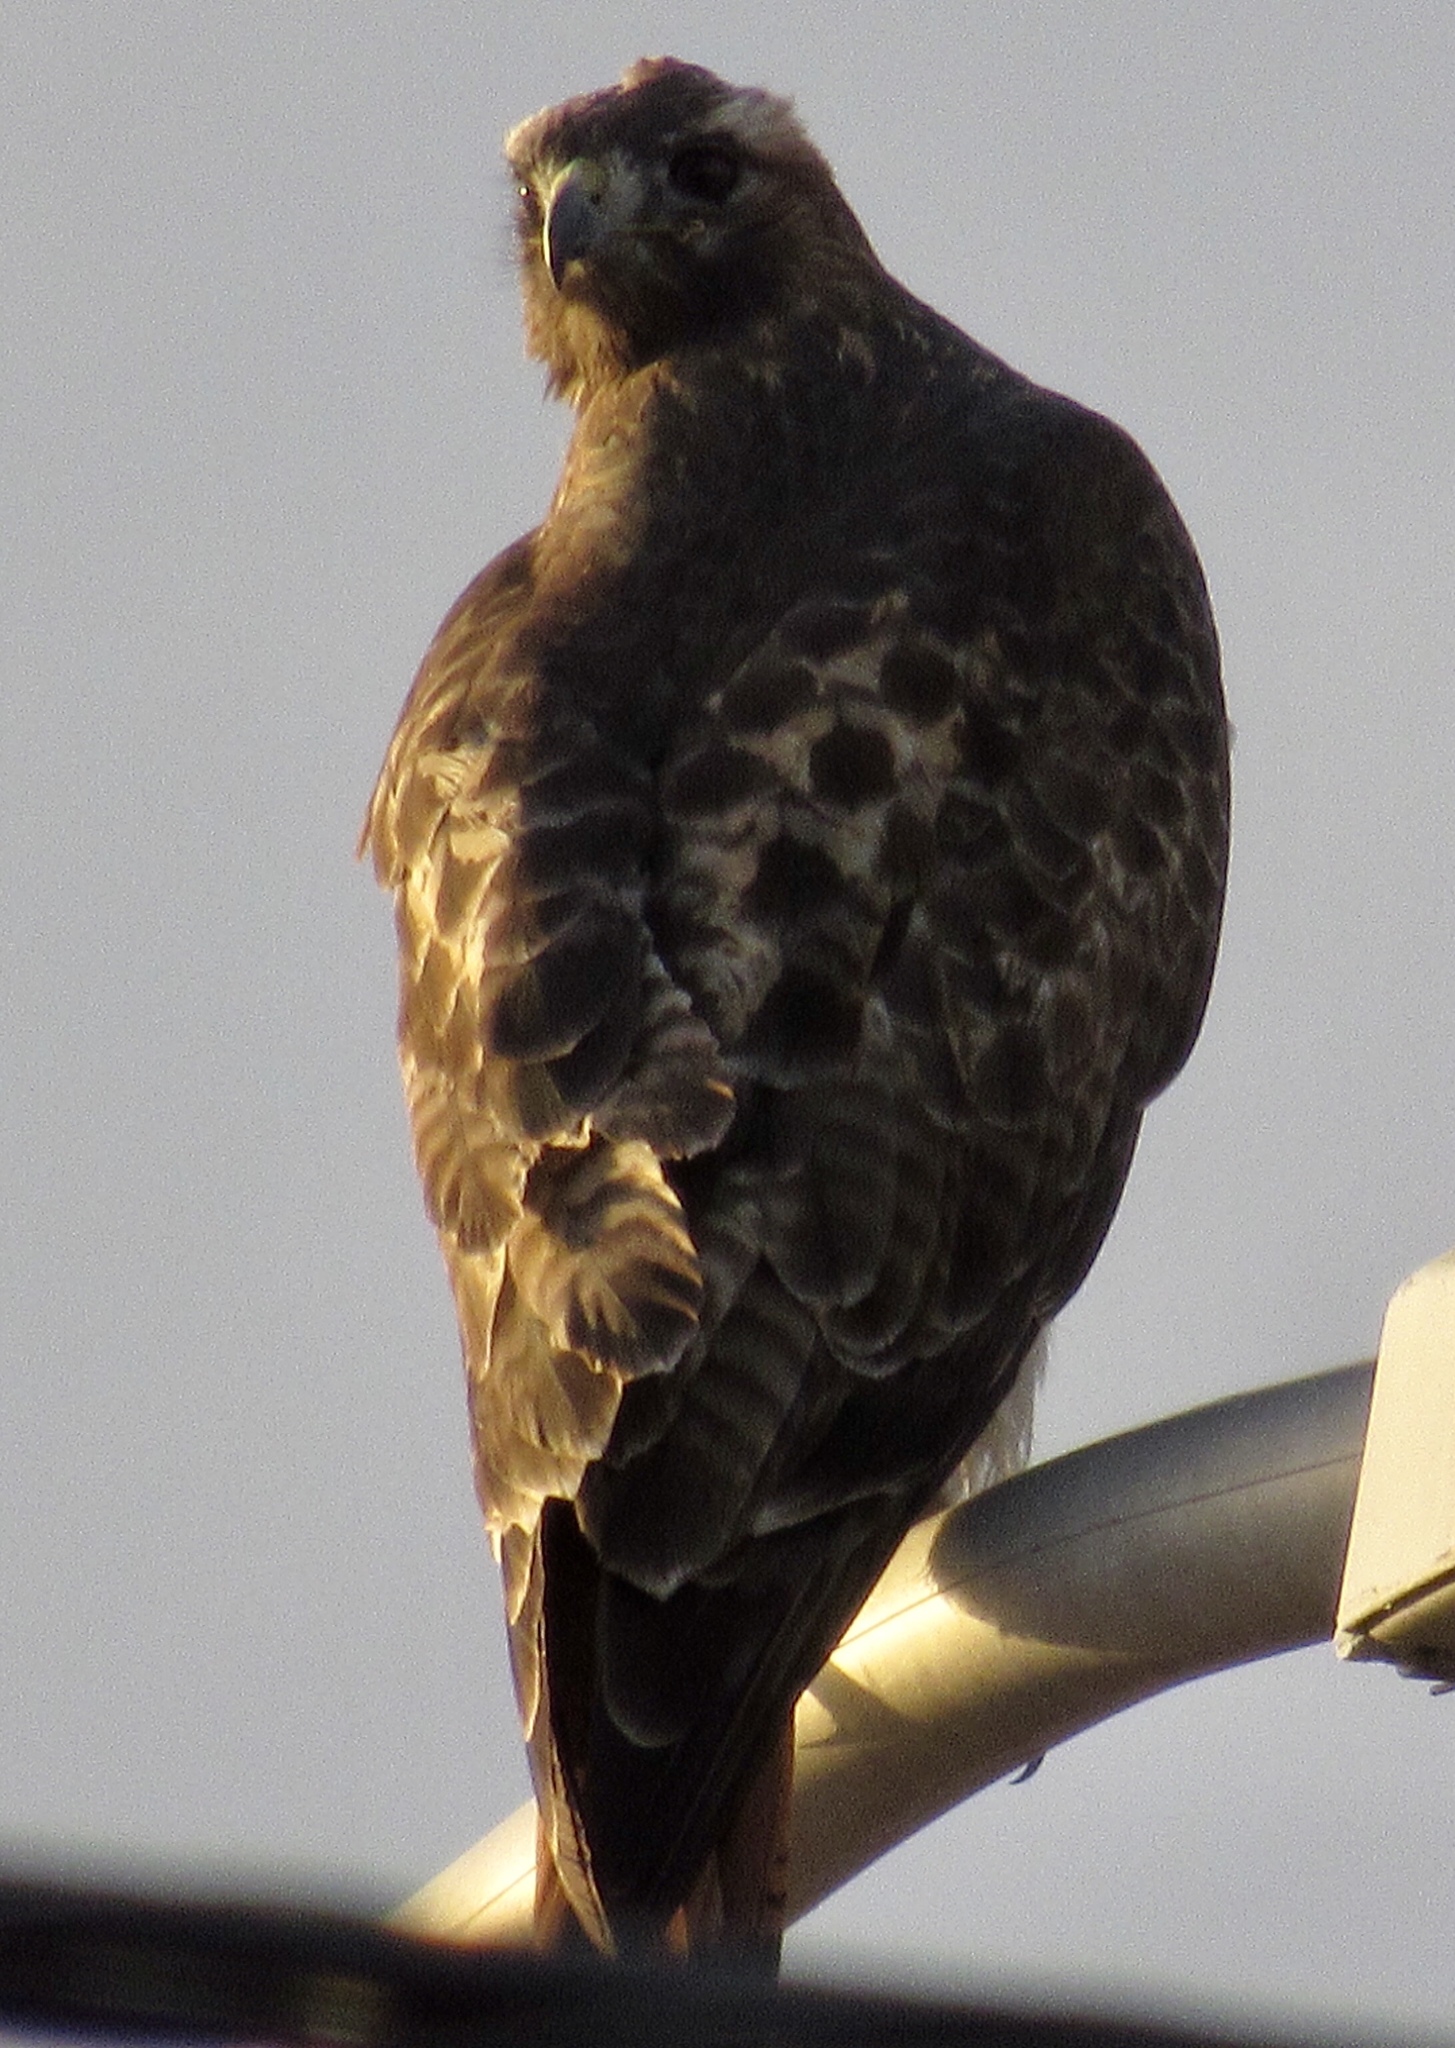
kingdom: Animalia
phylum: Chordata
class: Aves
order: Accipitriformes
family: Accipitridae
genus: Buteo
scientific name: Buteo jamaicensis
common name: Red-tailed hawk
